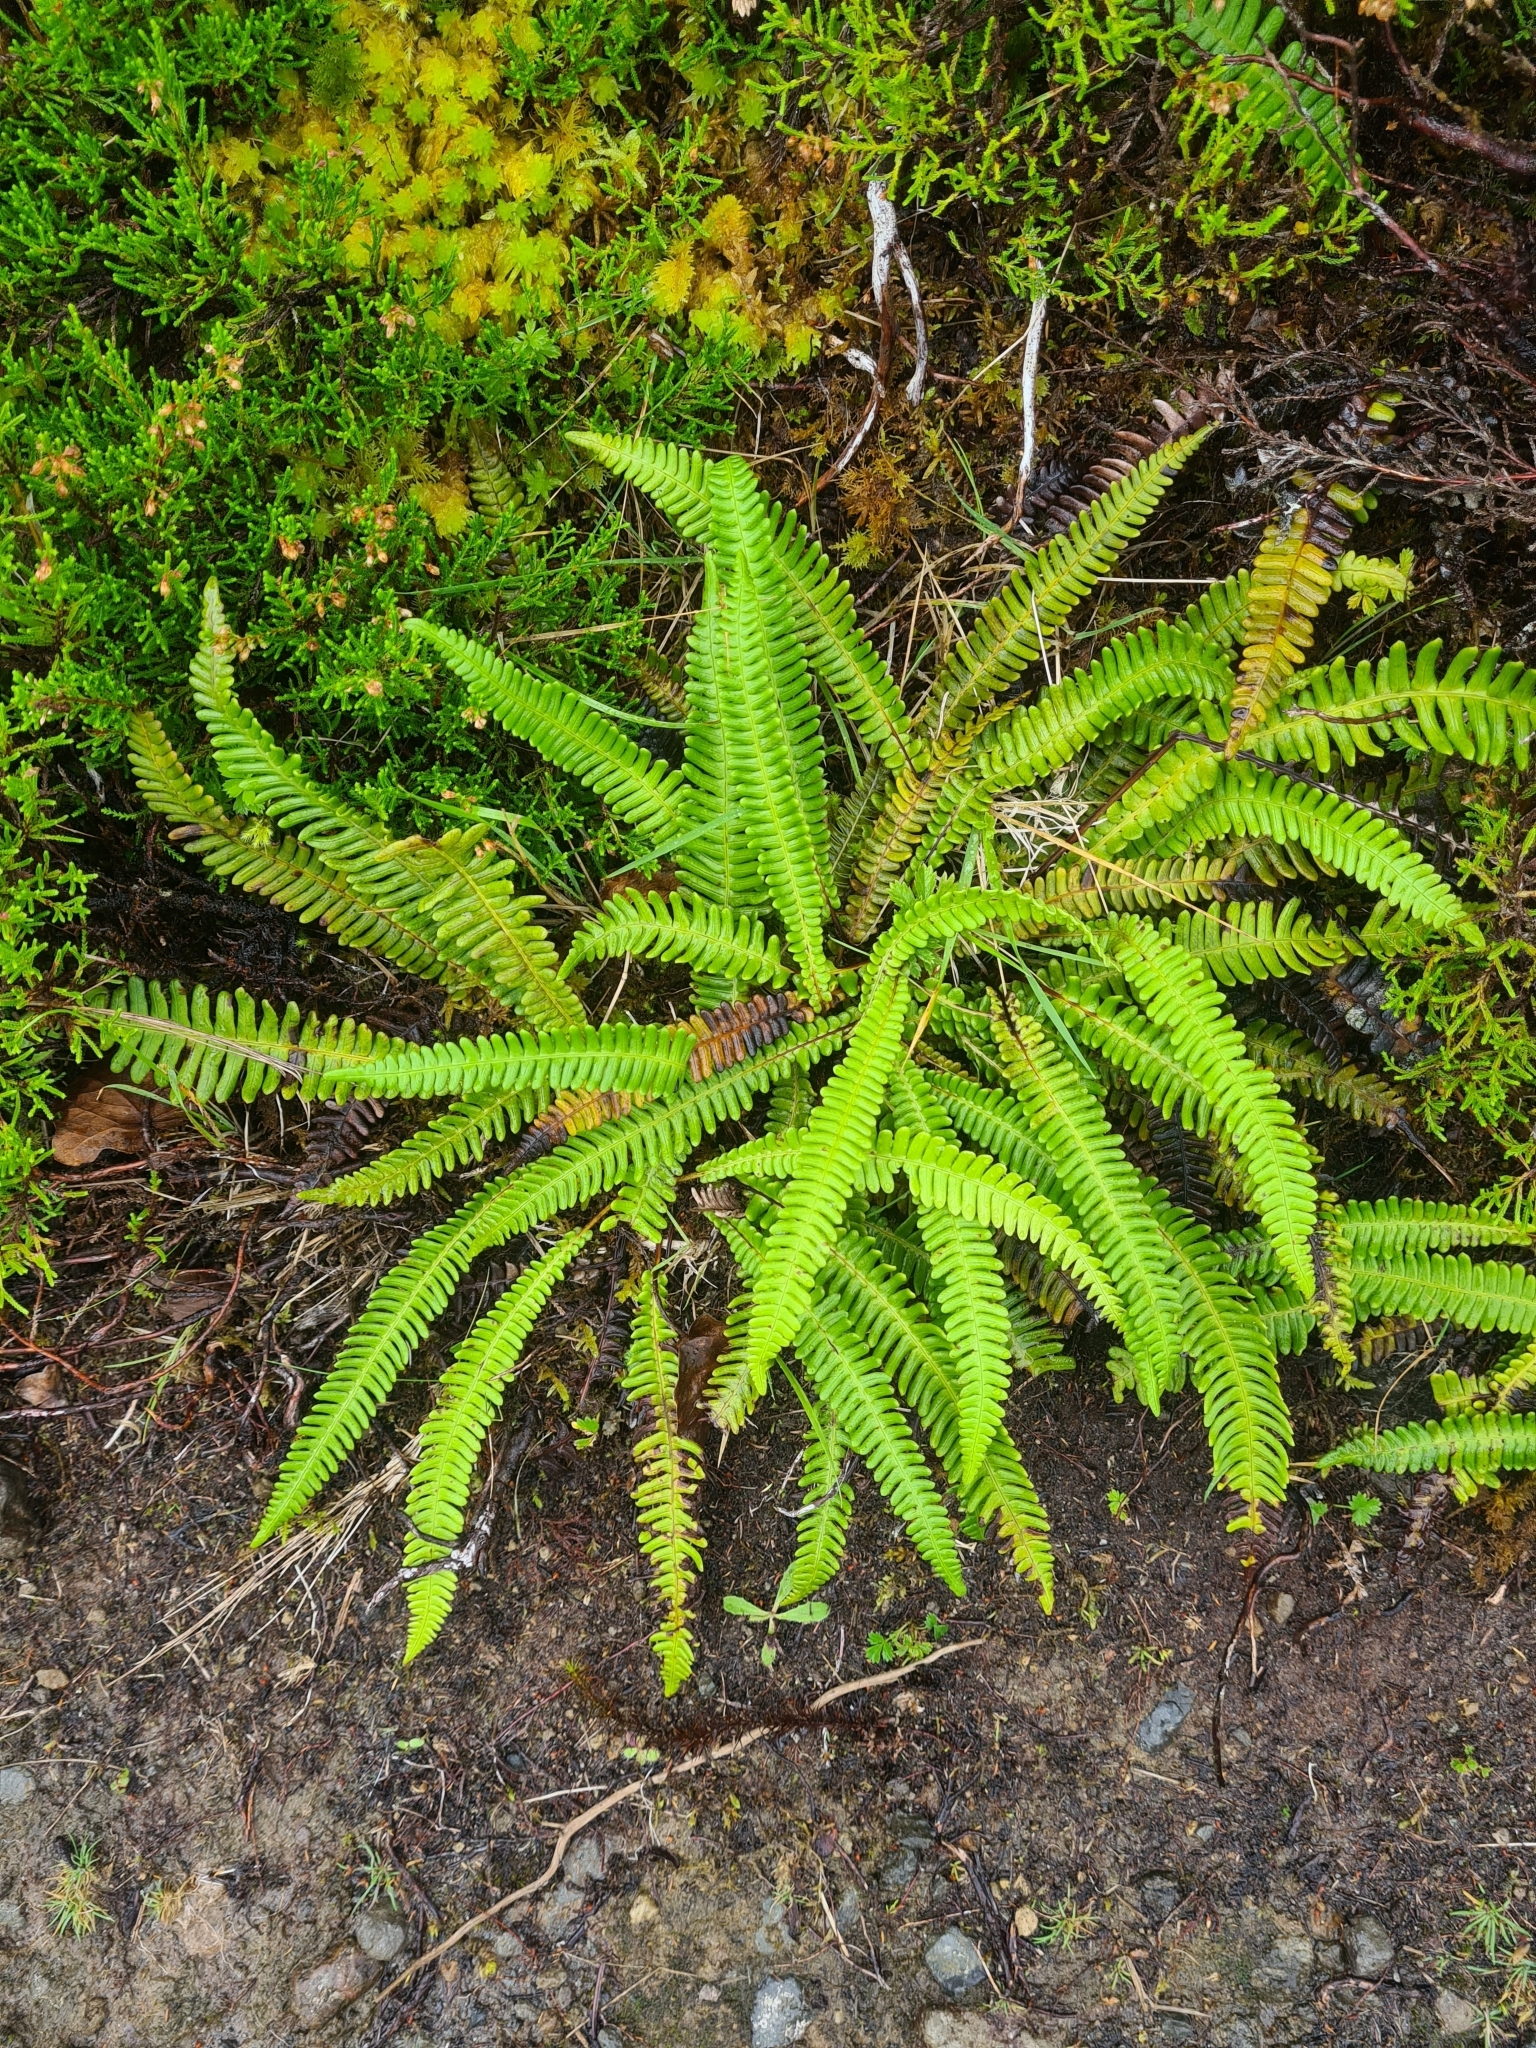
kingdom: Plantae
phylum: Tracheophyta
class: Polypodiopsida
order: Polypodiales
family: Blechnaceae
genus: Struthiopteris
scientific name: Struthiopteris spicant
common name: Deer fern
